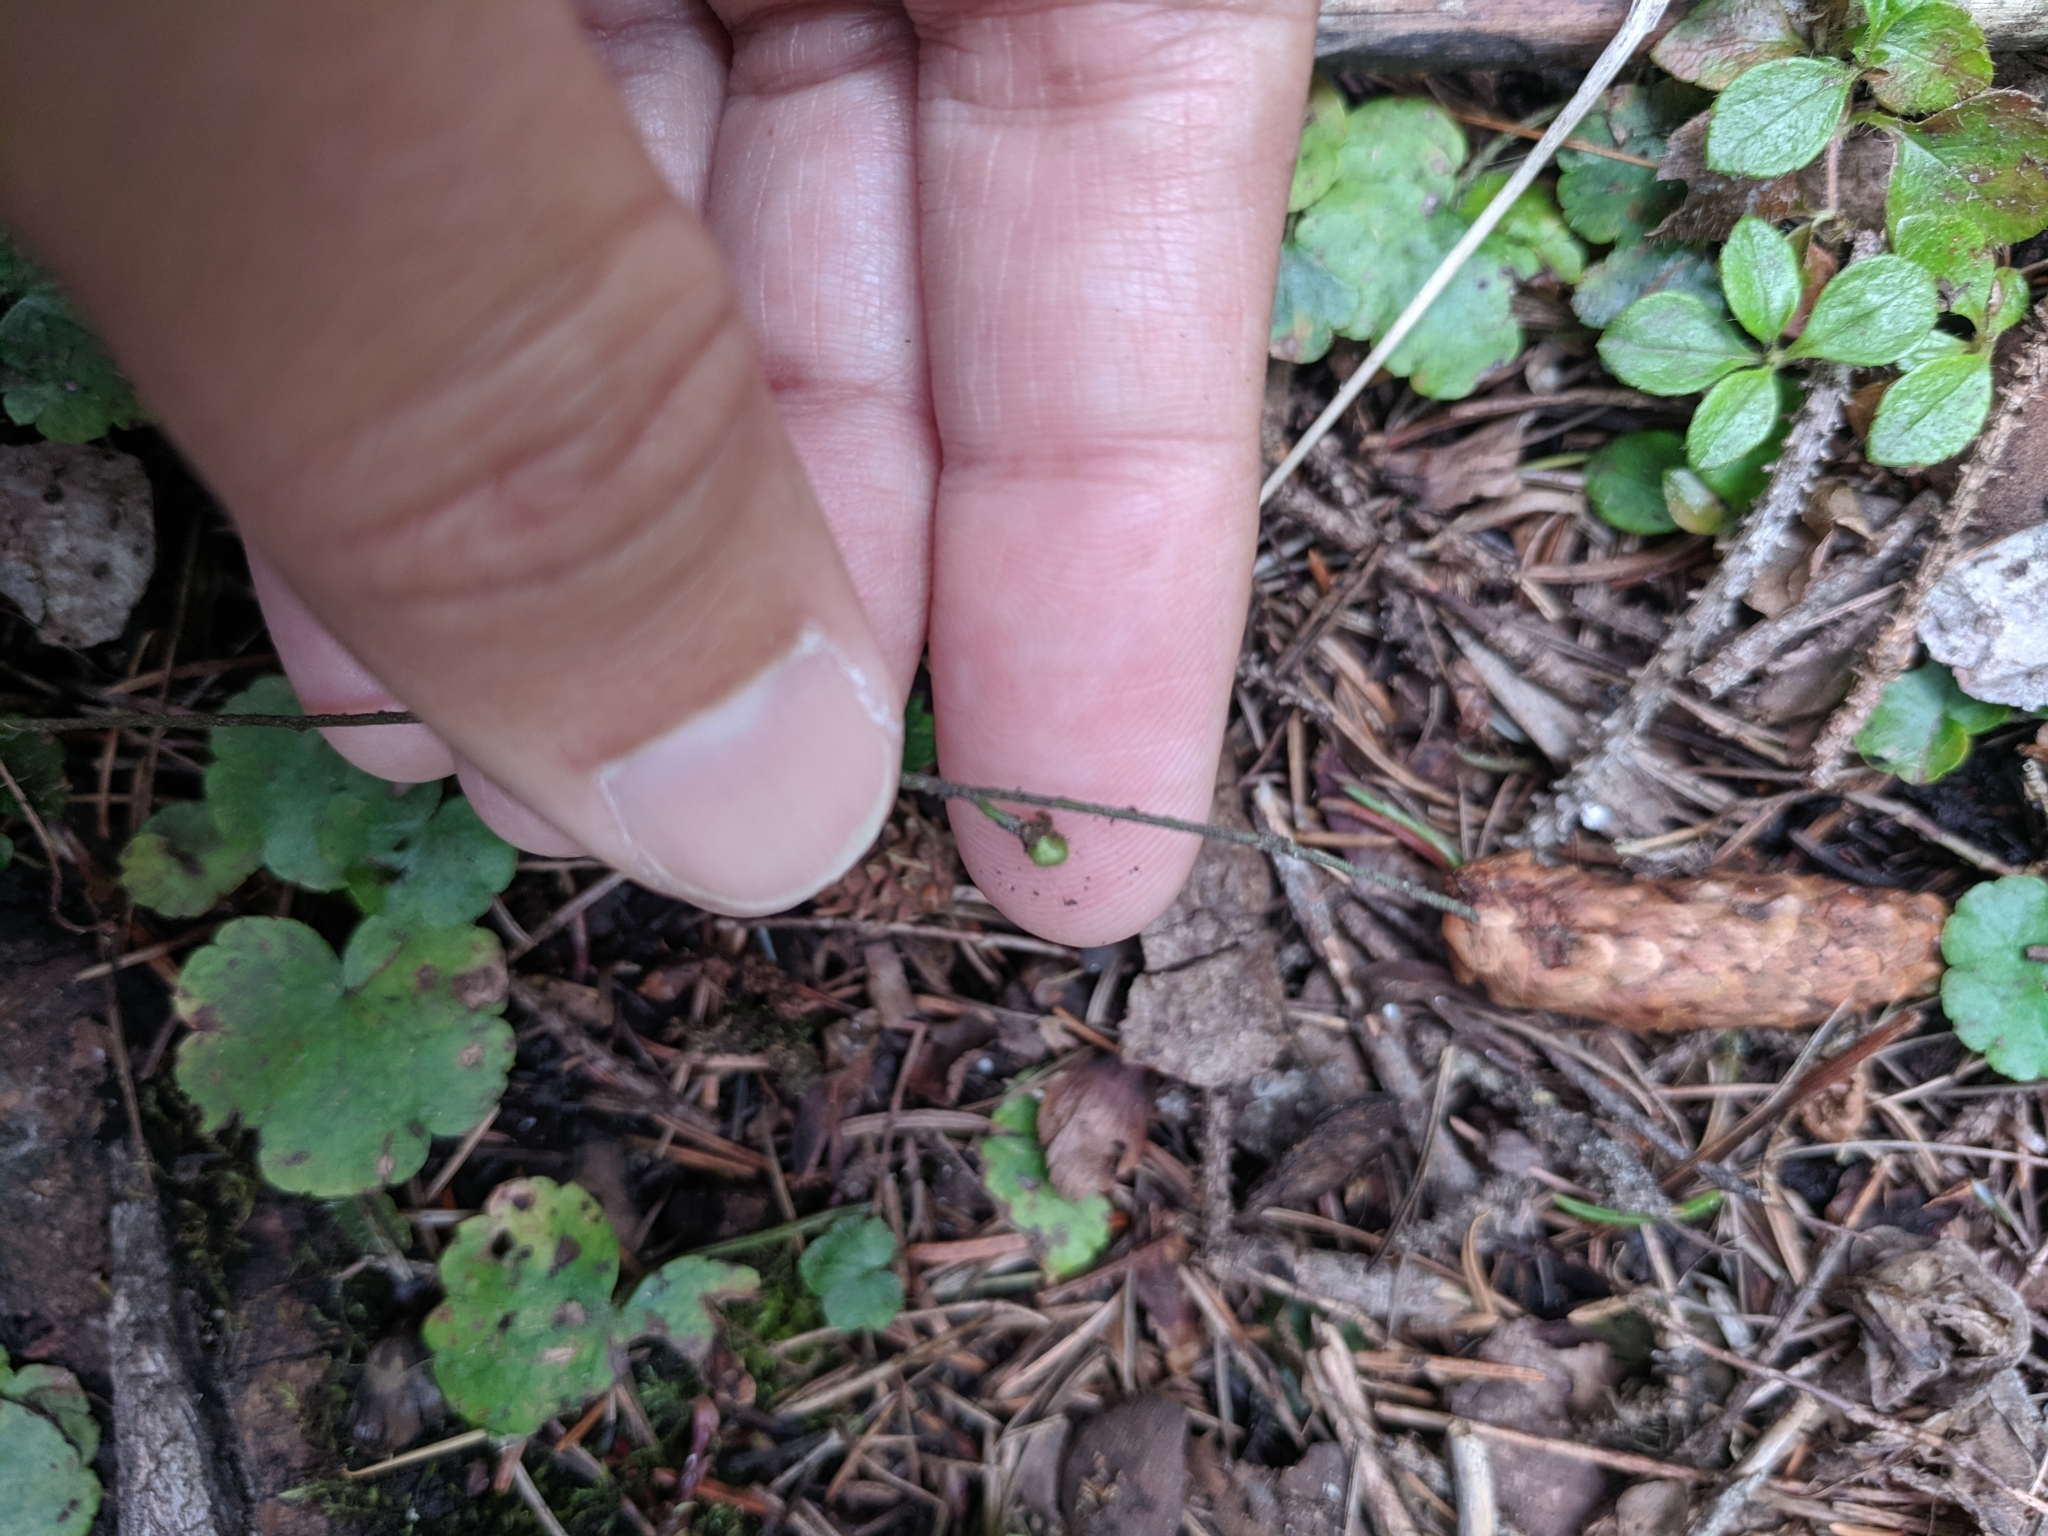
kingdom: Plantae
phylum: Tracheophyta
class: Magnoliopsida
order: Saxifragales
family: Saxifragaceae
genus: Mitella
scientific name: Mitella nuda
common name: Bare-stemmed bishop's-cap
